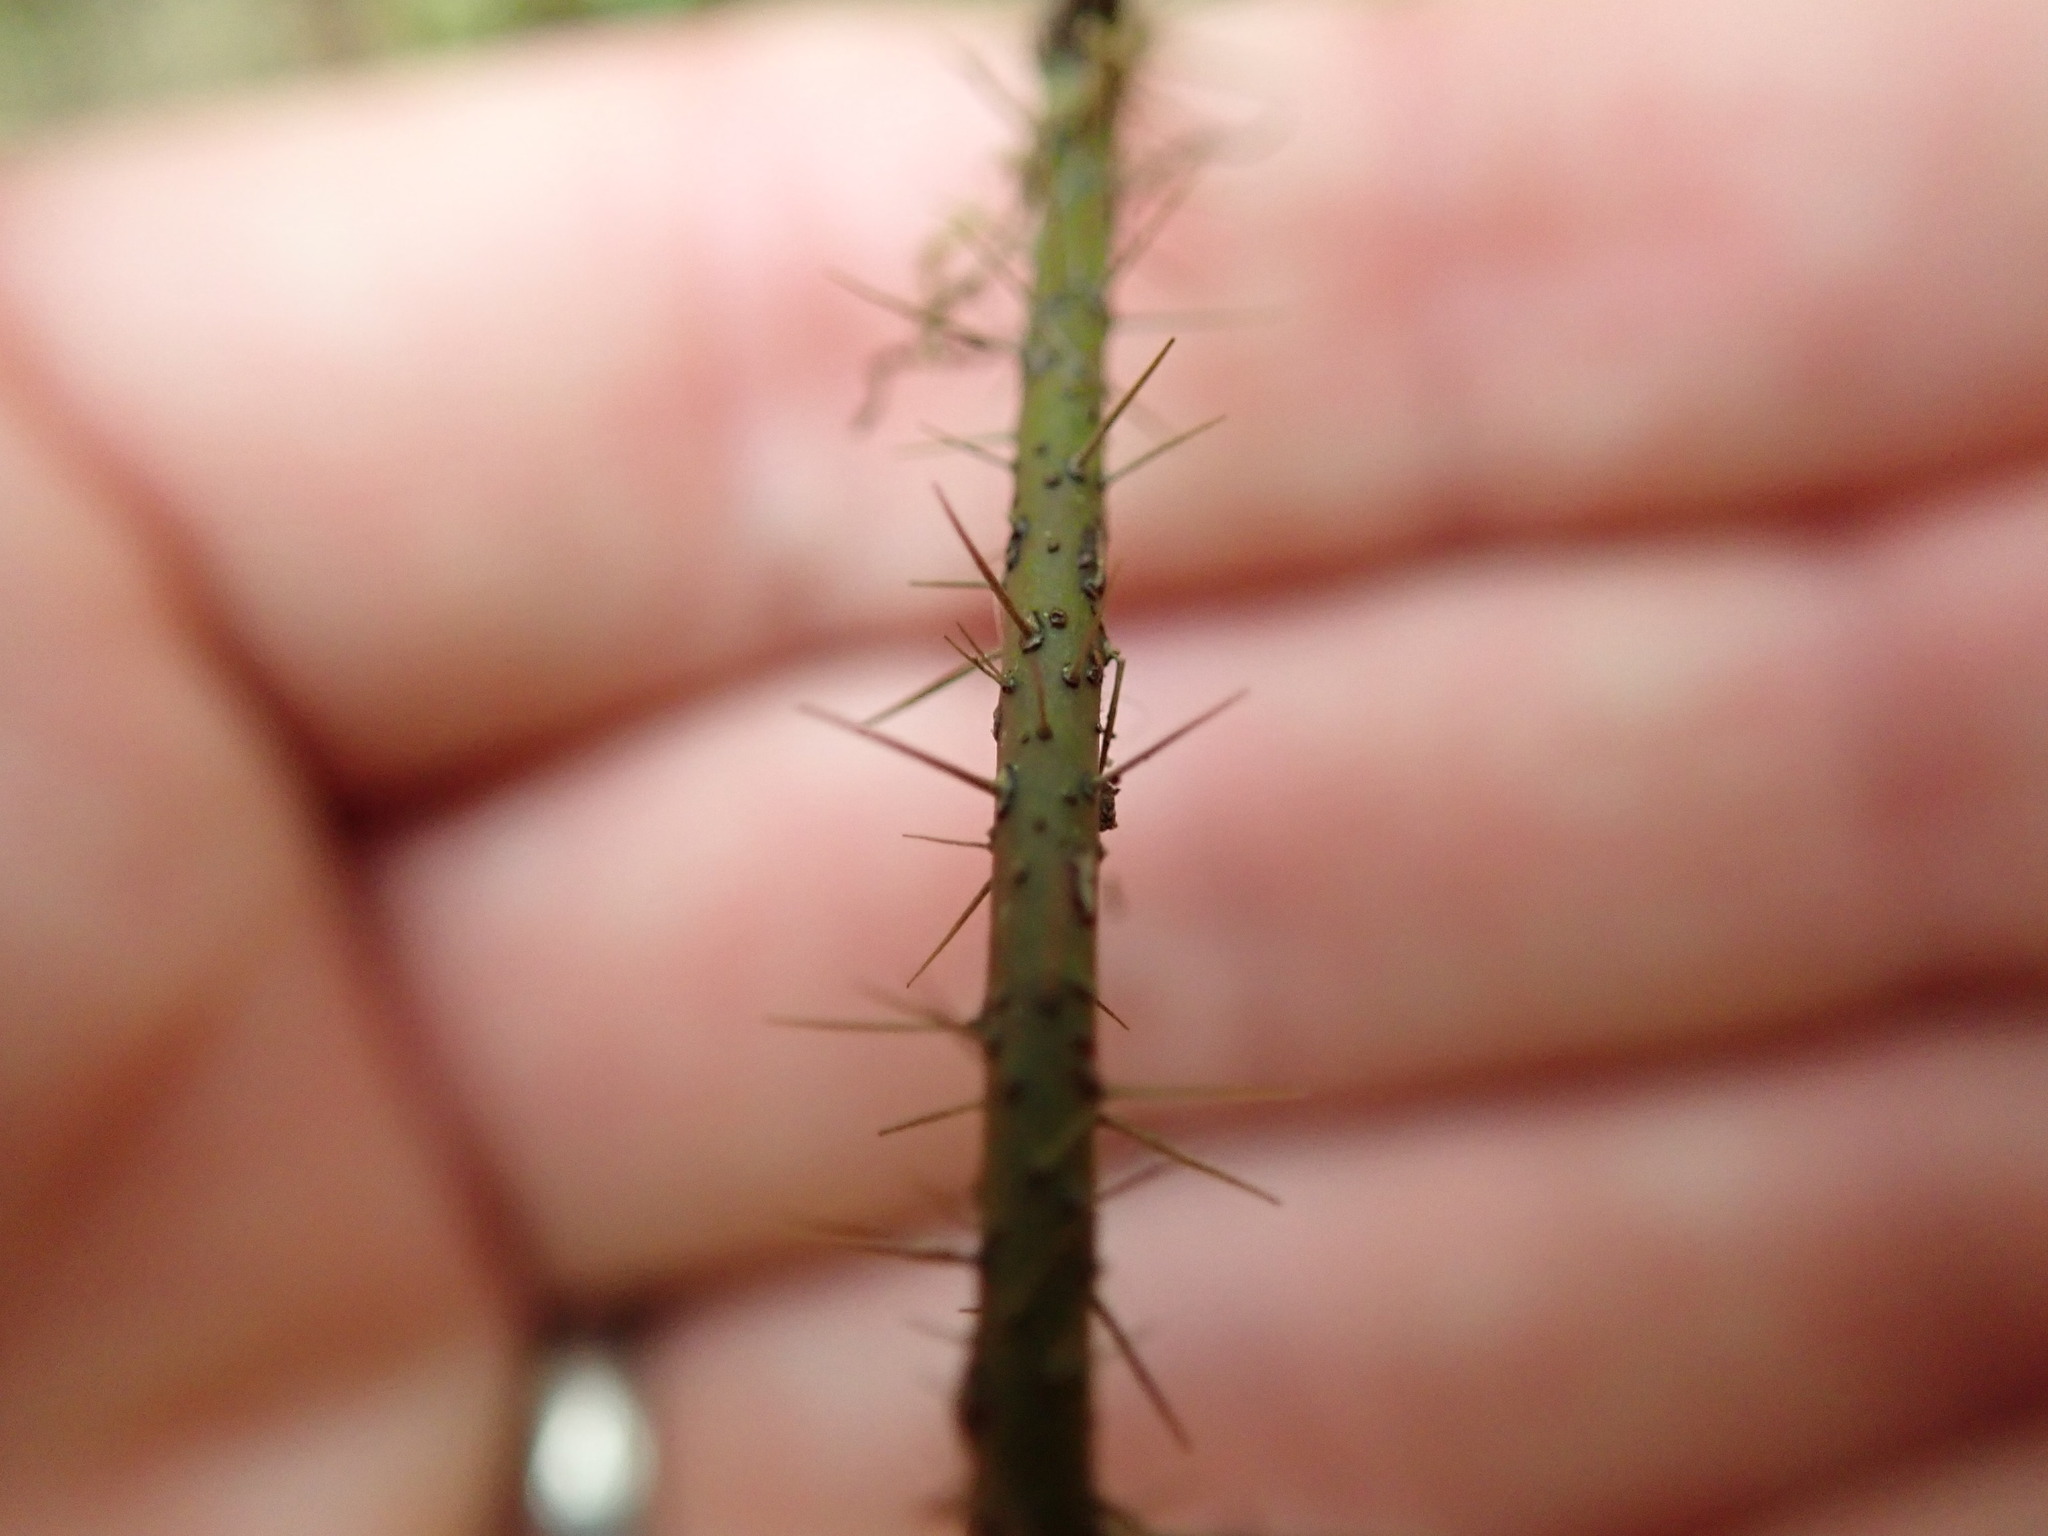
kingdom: Plantae
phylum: Tracheophyta
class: Magnoliopsida
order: Rosales
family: Rosaceae
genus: Rosa
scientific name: Rosa gymnocarpa
